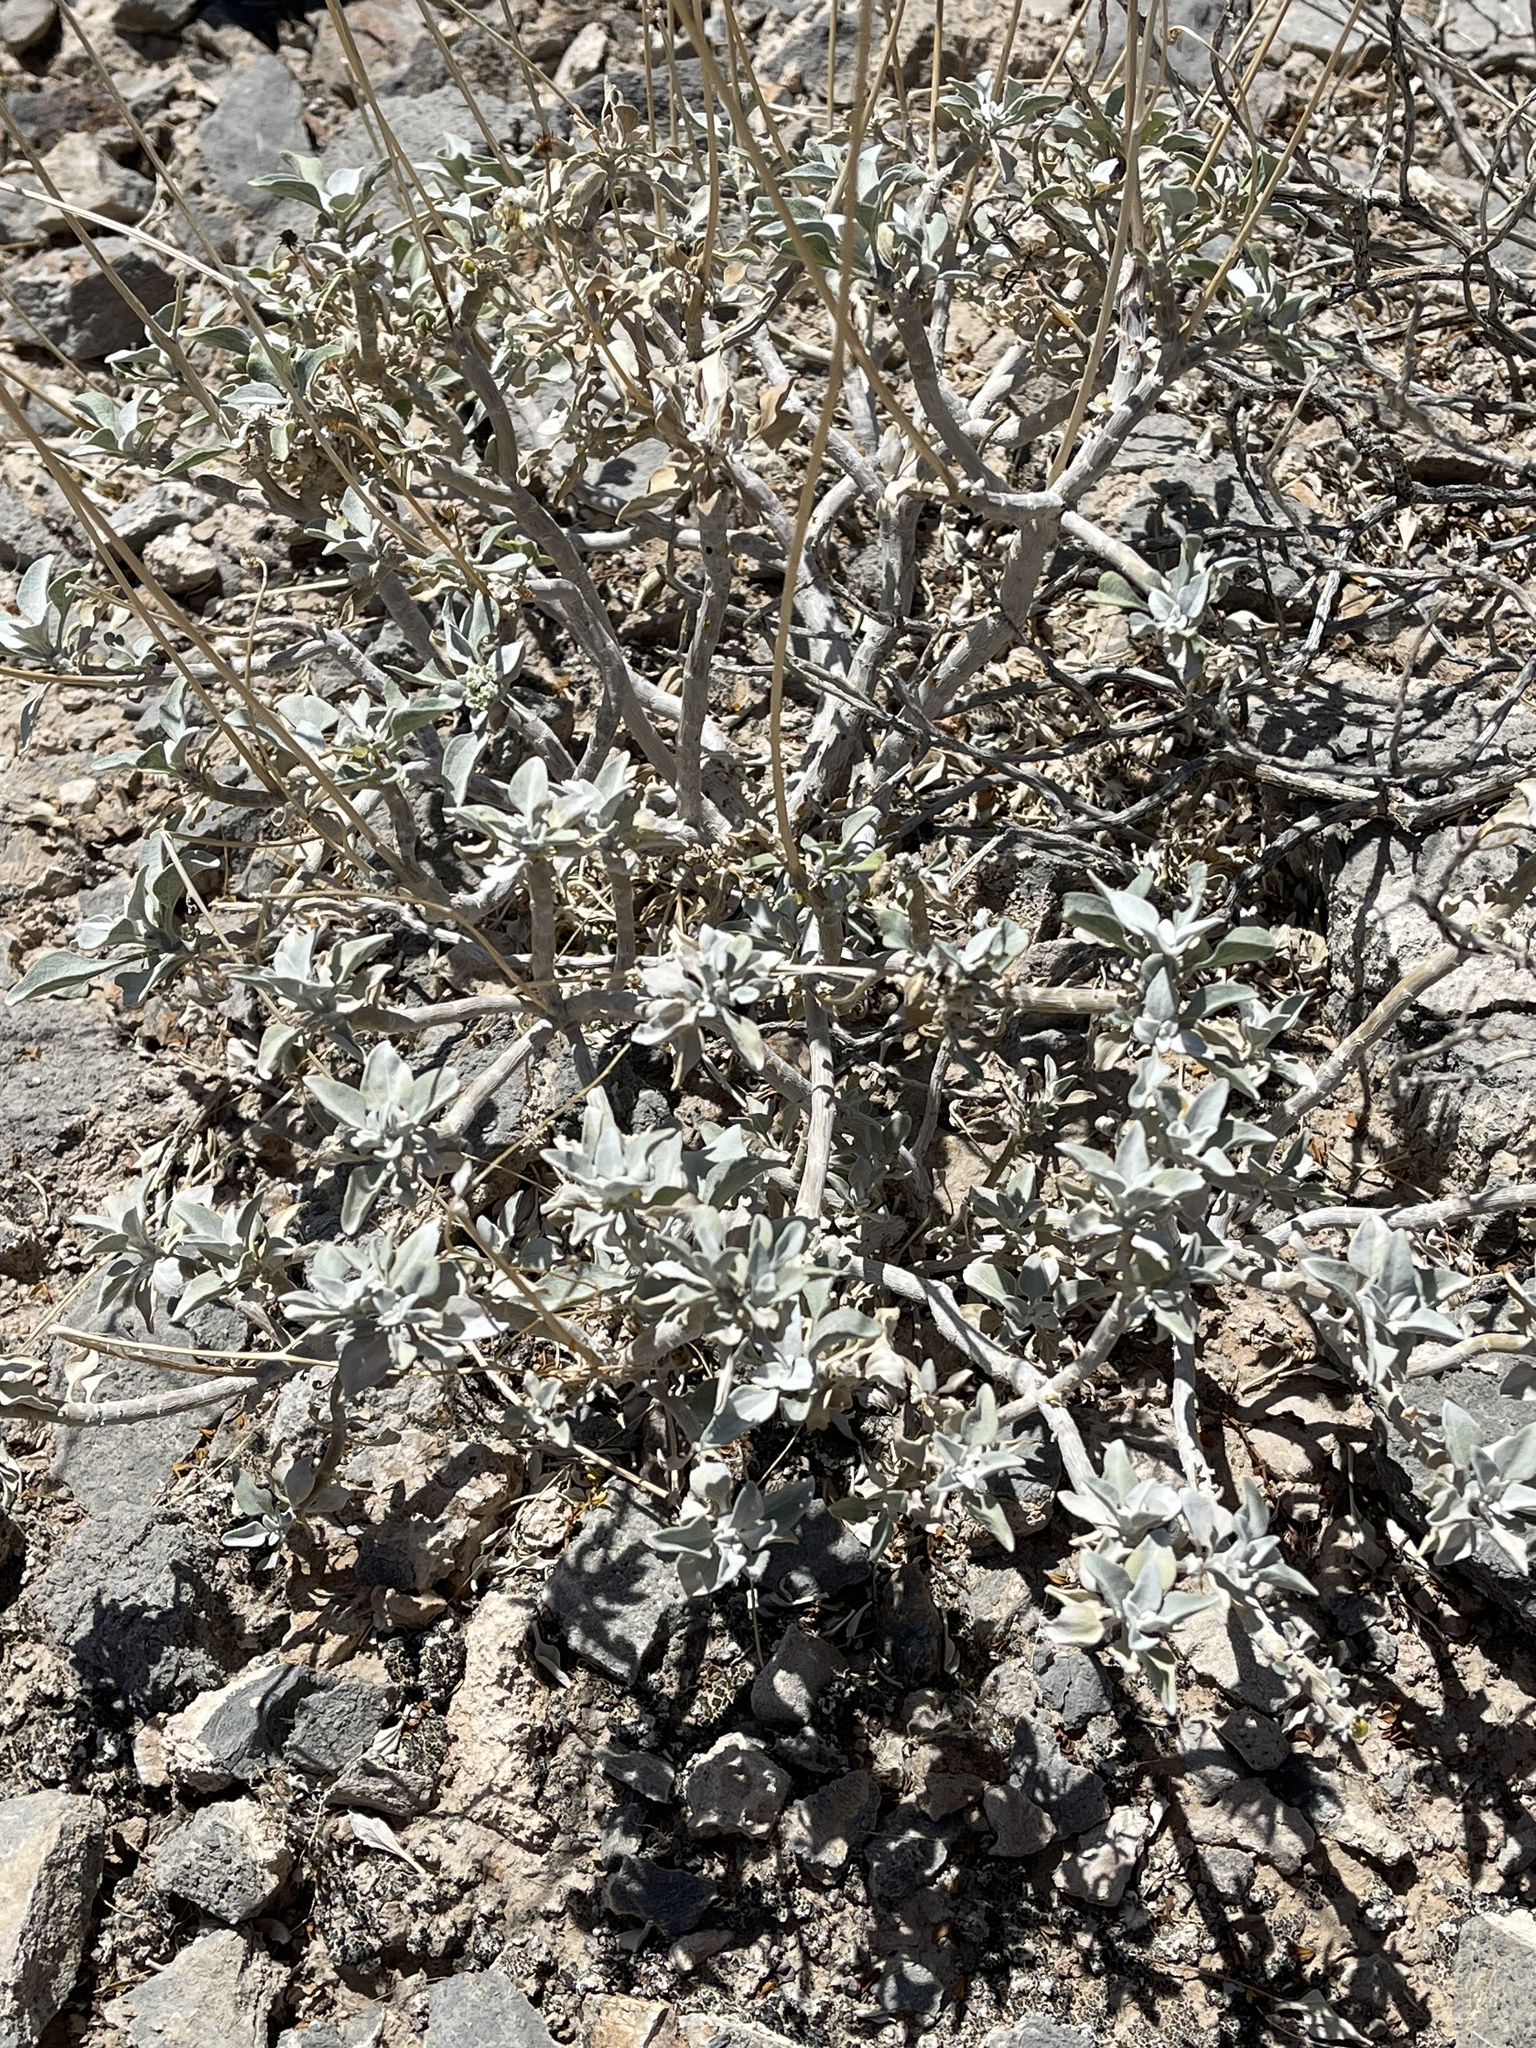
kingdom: Plantae
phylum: Tracheophyta
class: Magnoliopsida
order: Asterales
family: Asteraceae
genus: Encelia
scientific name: Encelia farinosa
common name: Brittlebush
